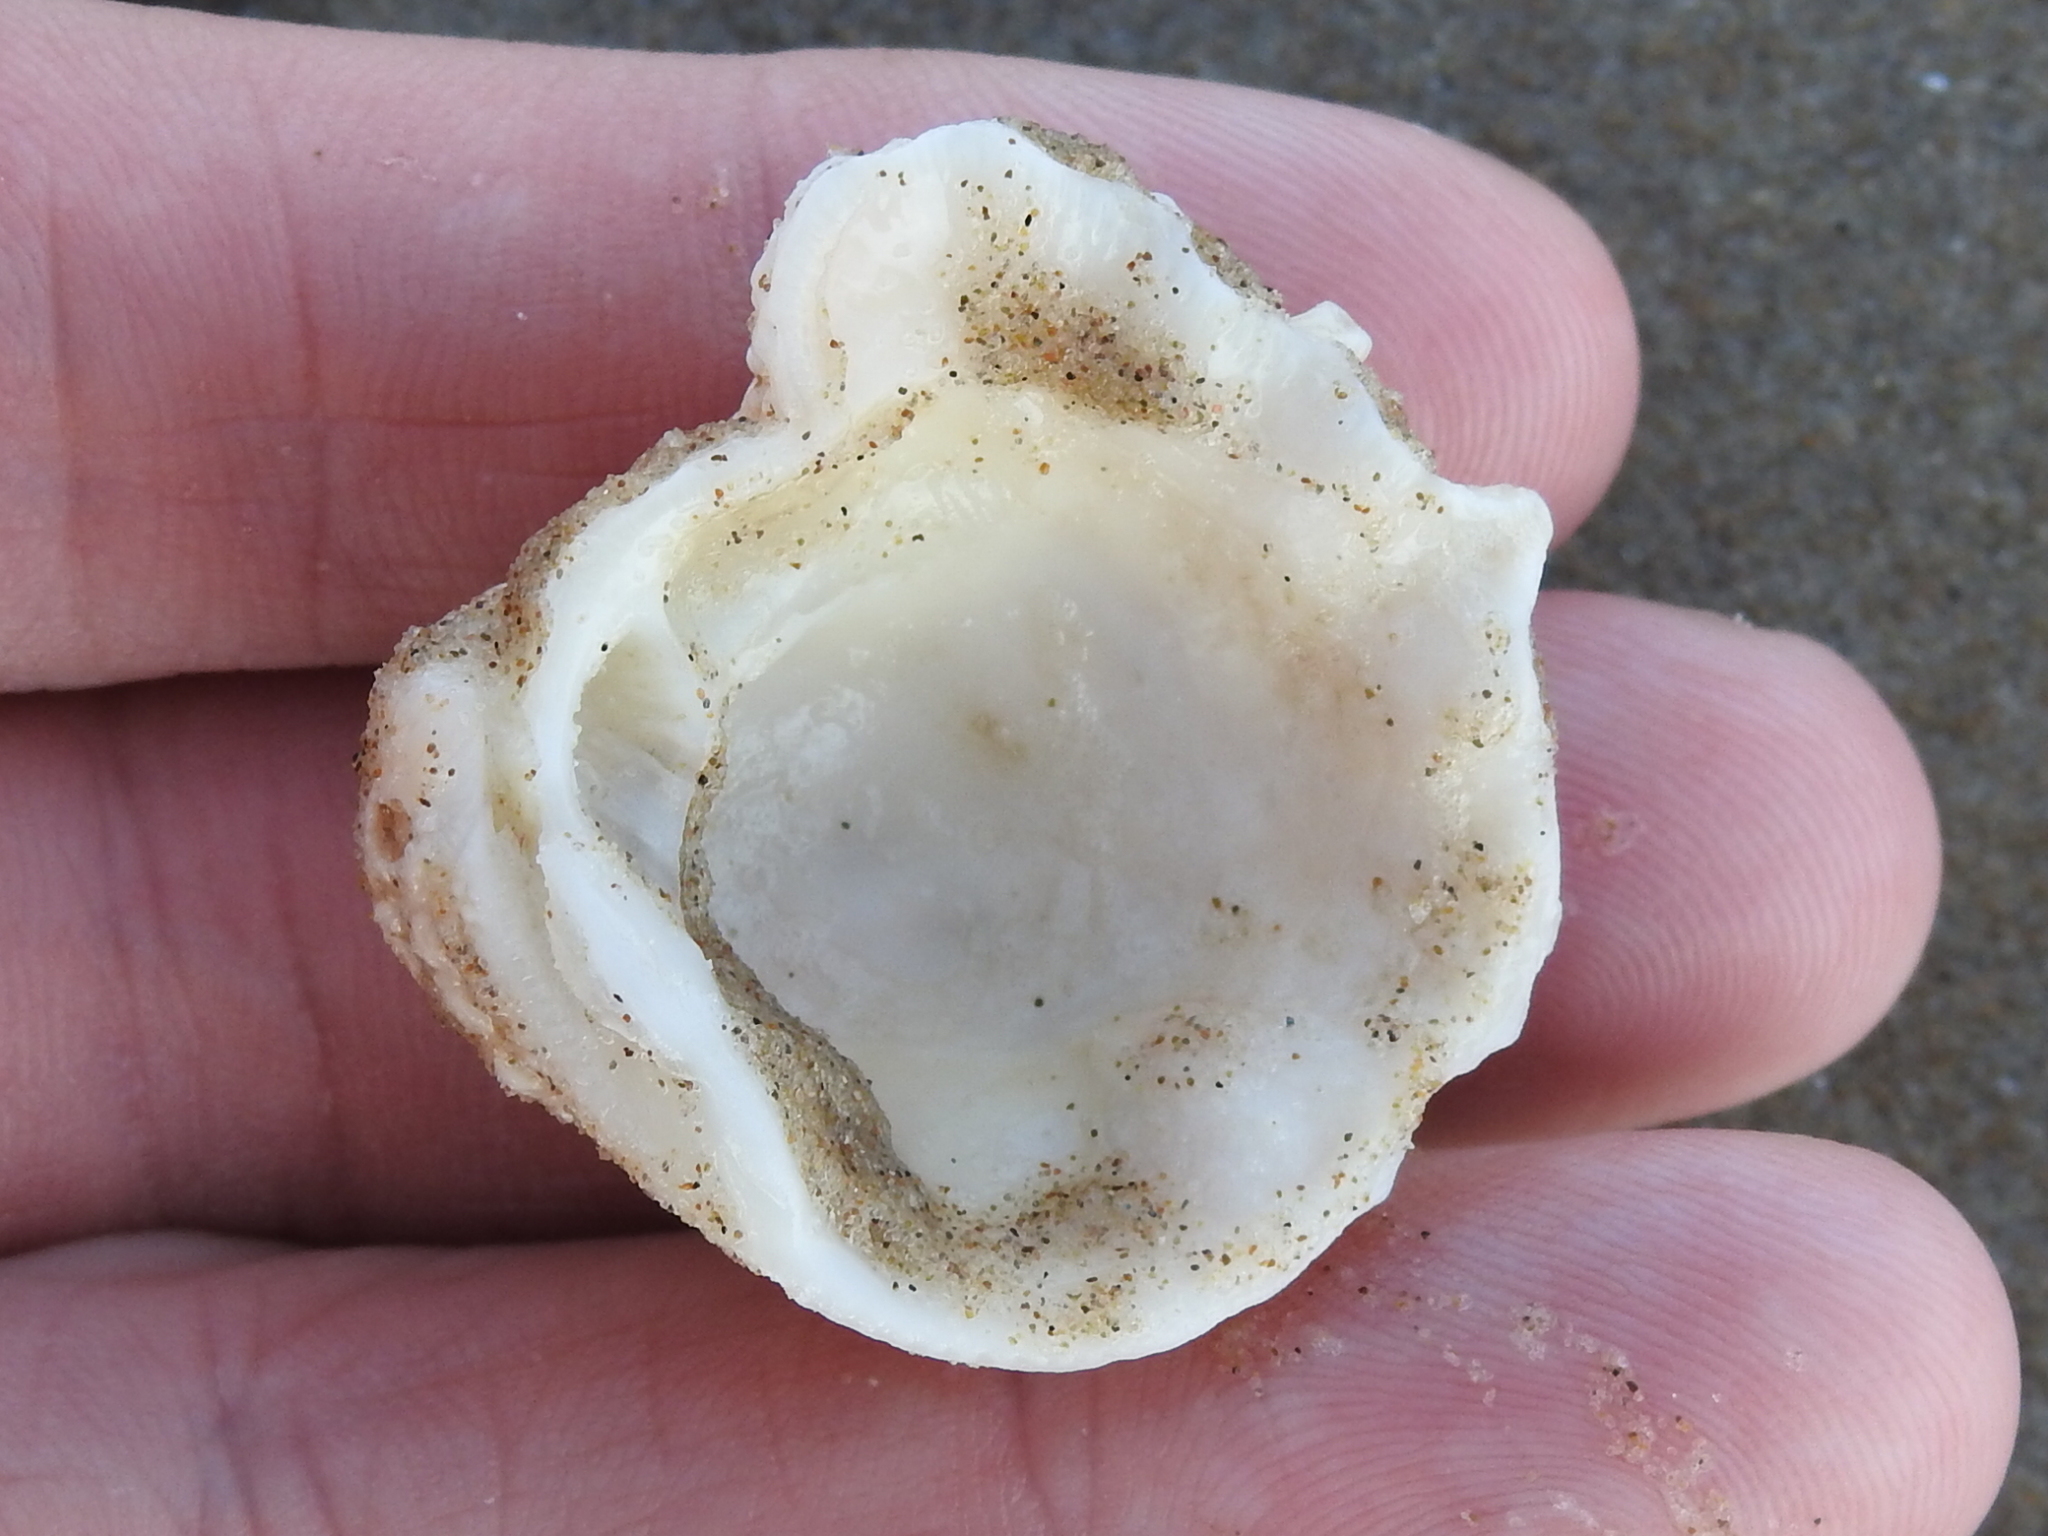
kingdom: Animalia
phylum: Mollusca
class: Bivalvia
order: Venerida
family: Chamidae
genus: Arcinella
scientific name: Arcinella cornuta
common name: Florida spiny jewel box
